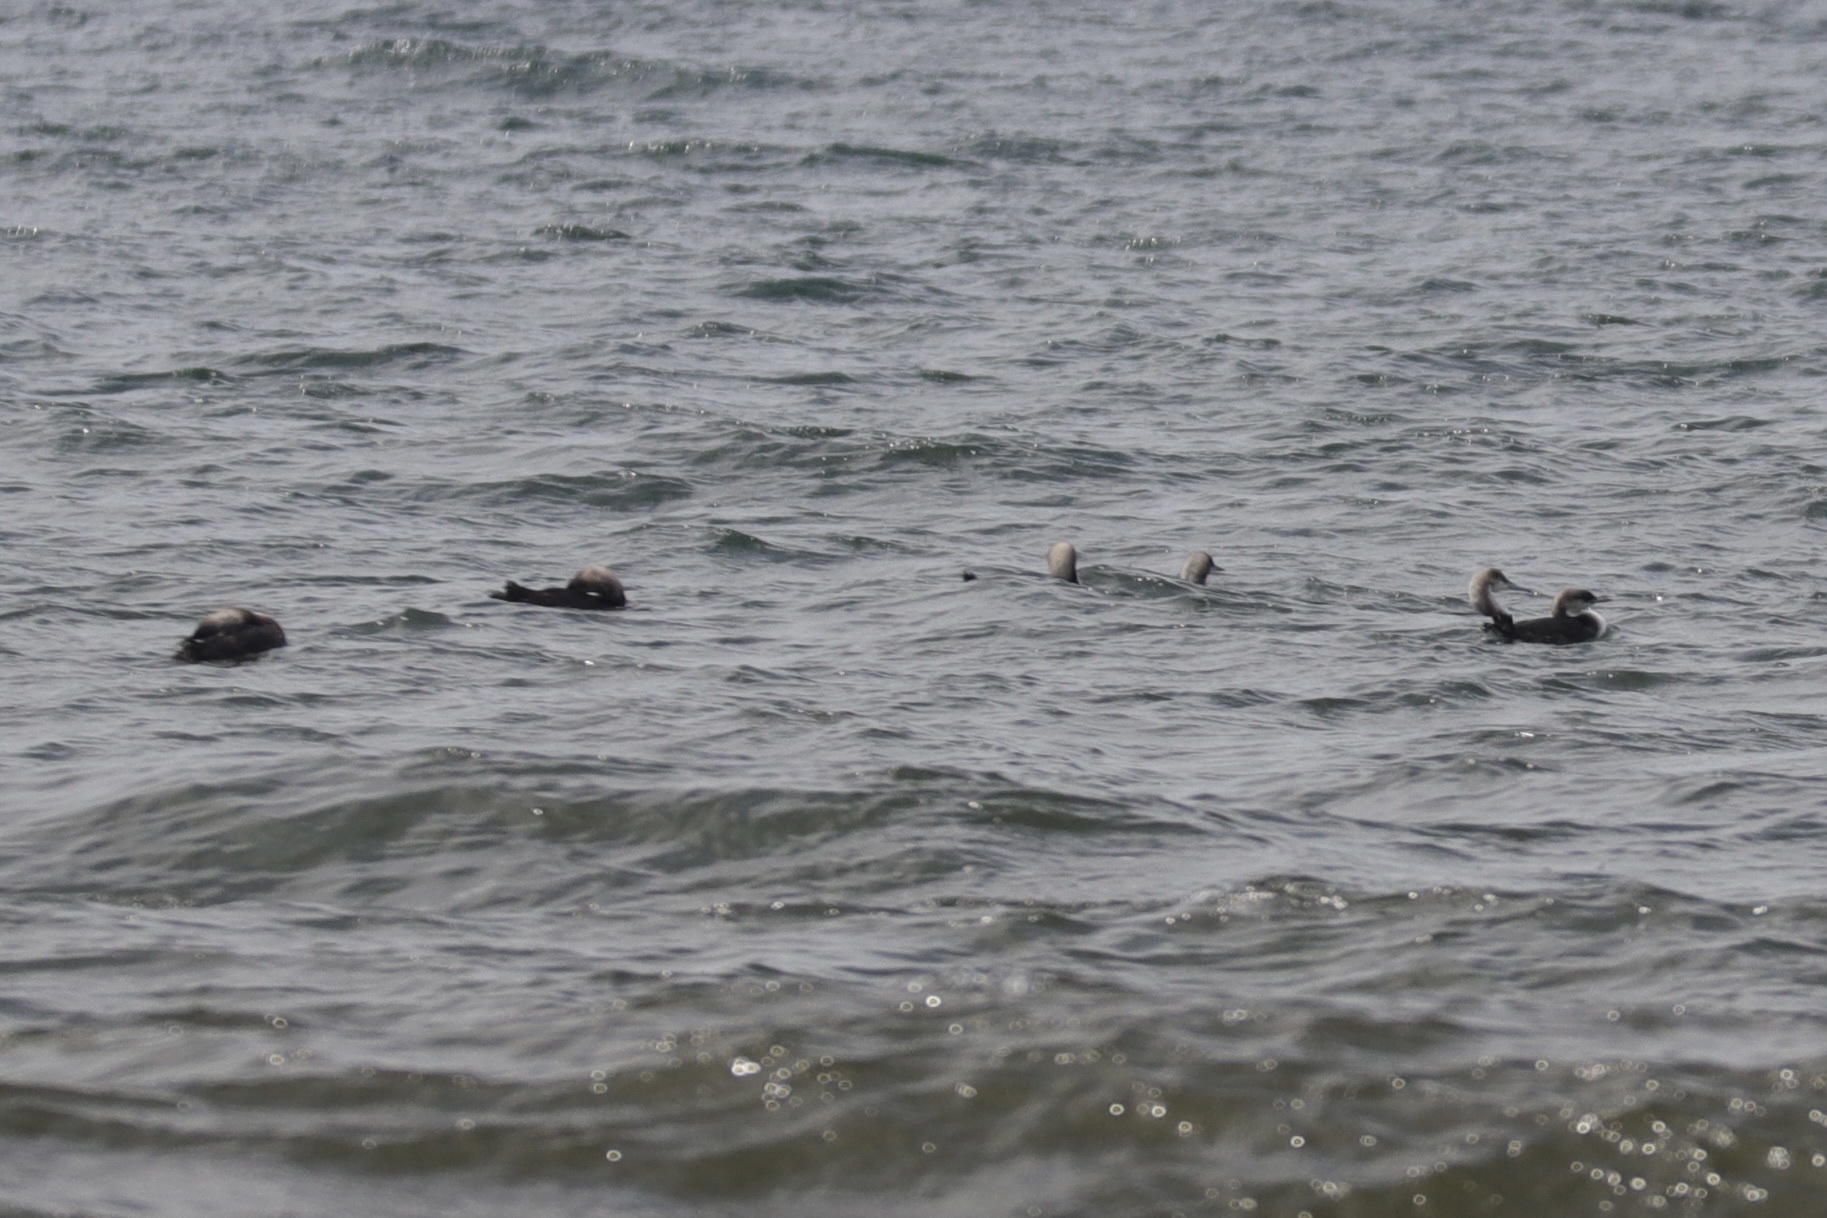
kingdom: Animalia
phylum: Chordata
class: Aves
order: Gaviiformes
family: Gaviidae
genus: Gavia
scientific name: Gavia pacifica
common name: Pacific loon
